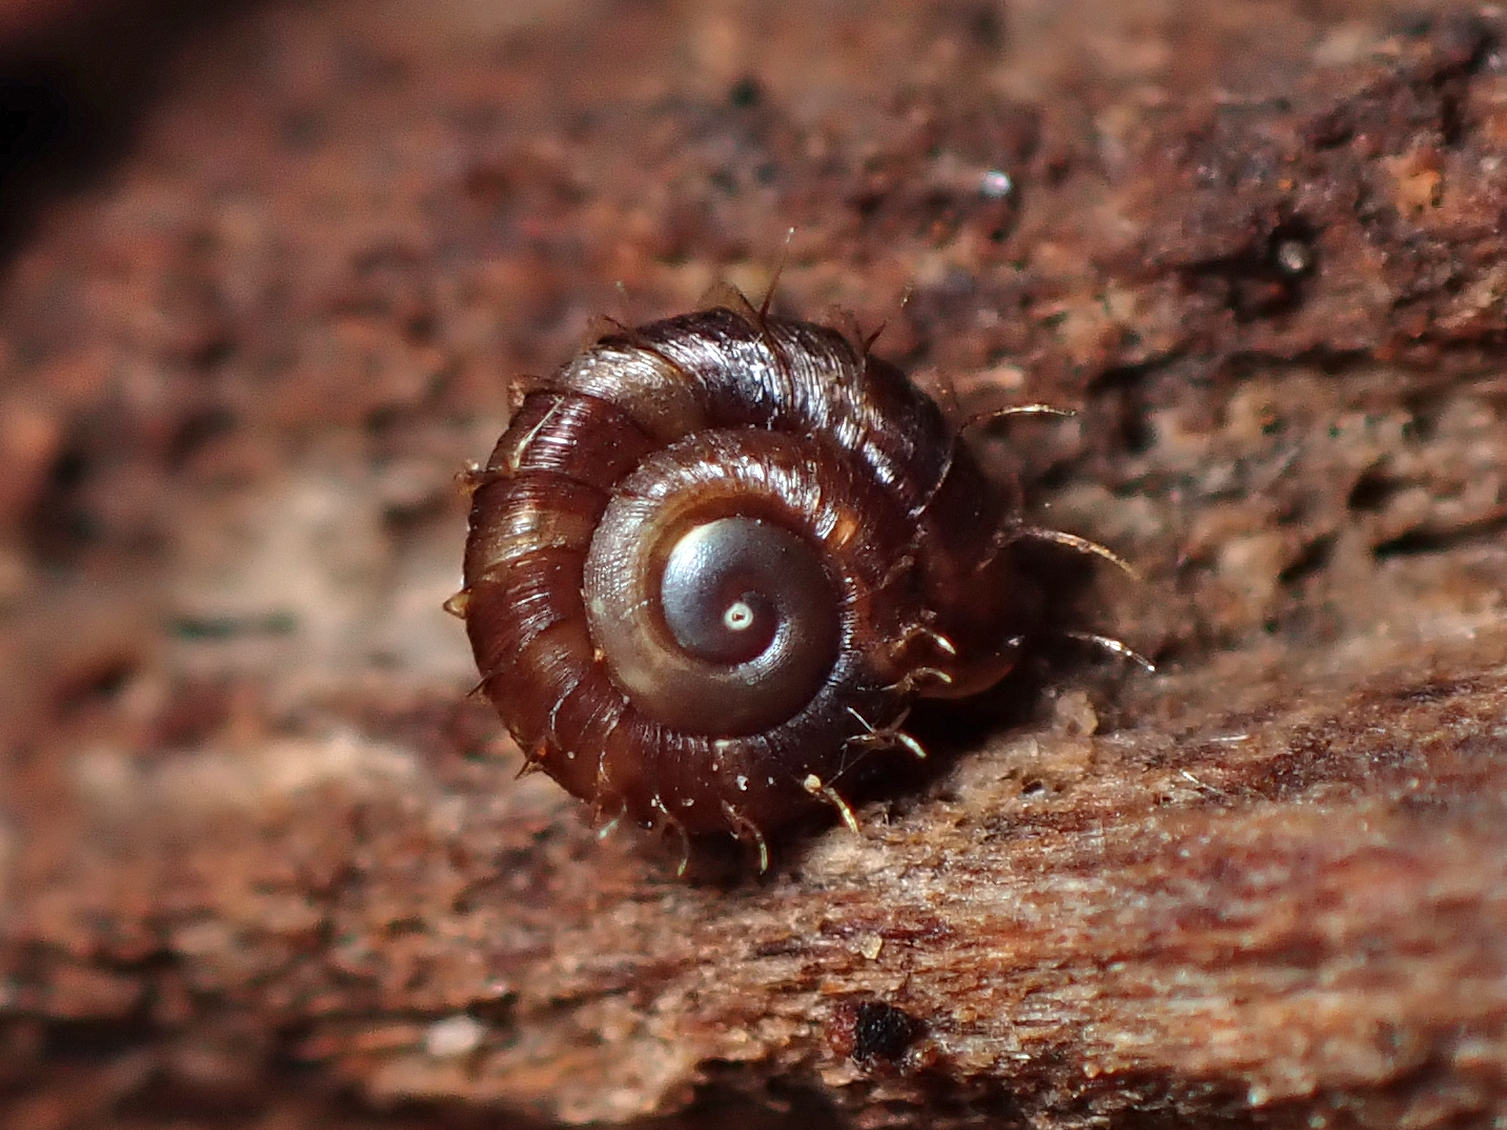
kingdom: Animalia
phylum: Mollusca
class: Gastropoda
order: Stylommatophora
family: Charopidae
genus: Aeschrodomus
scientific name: Aeschrodomus stipulata
